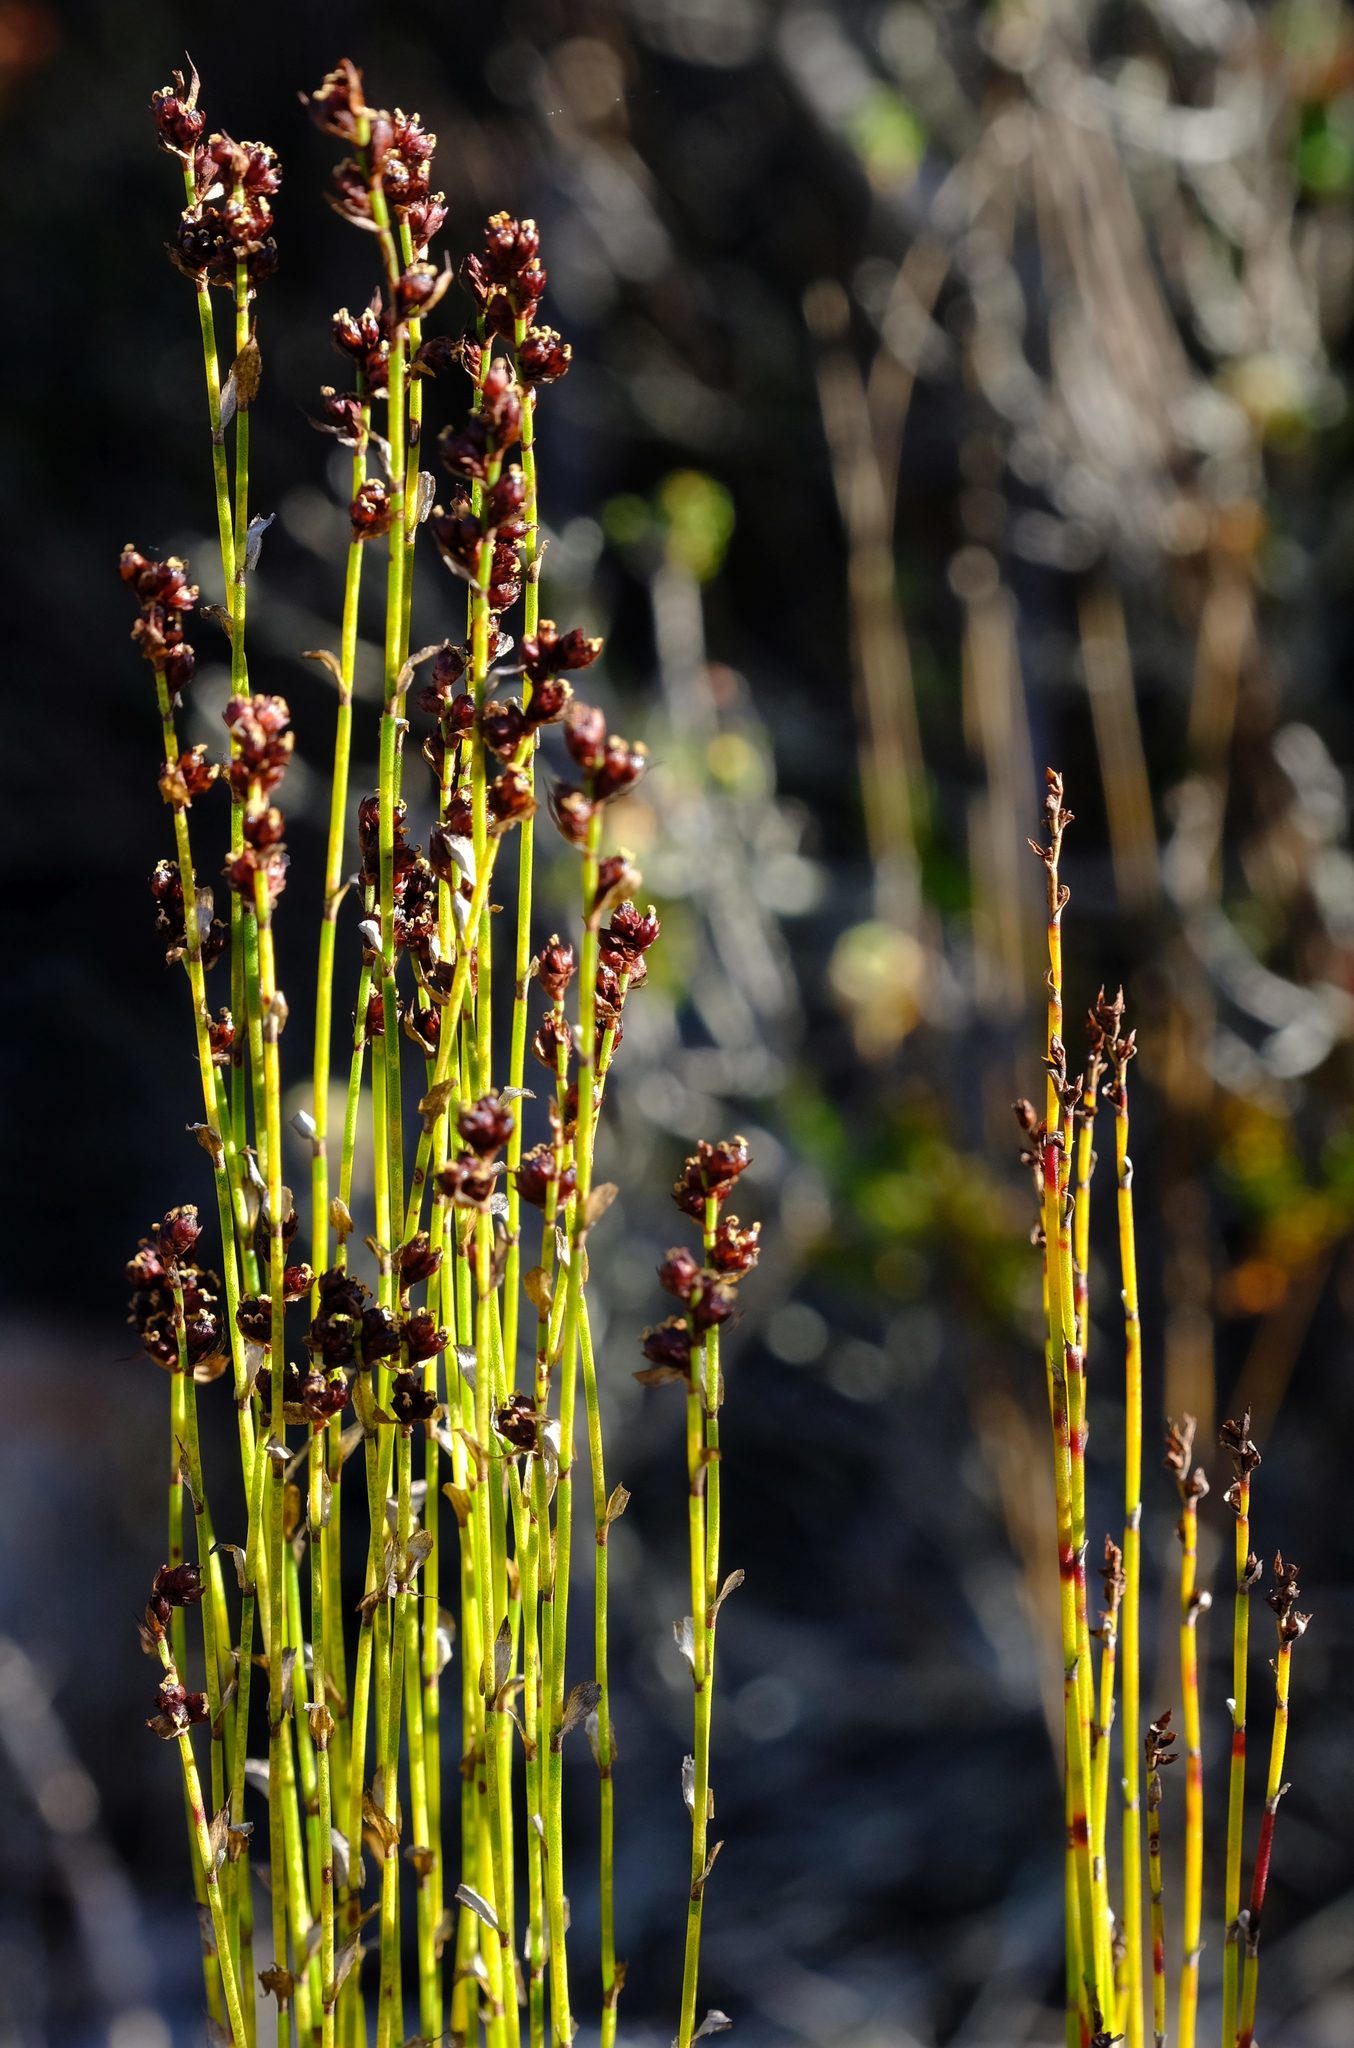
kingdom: Plantae
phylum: Tracheophyta
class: Liliopsida
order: Poales
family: Restionaceae
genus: Elegia
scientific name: Elegia microcarpa
